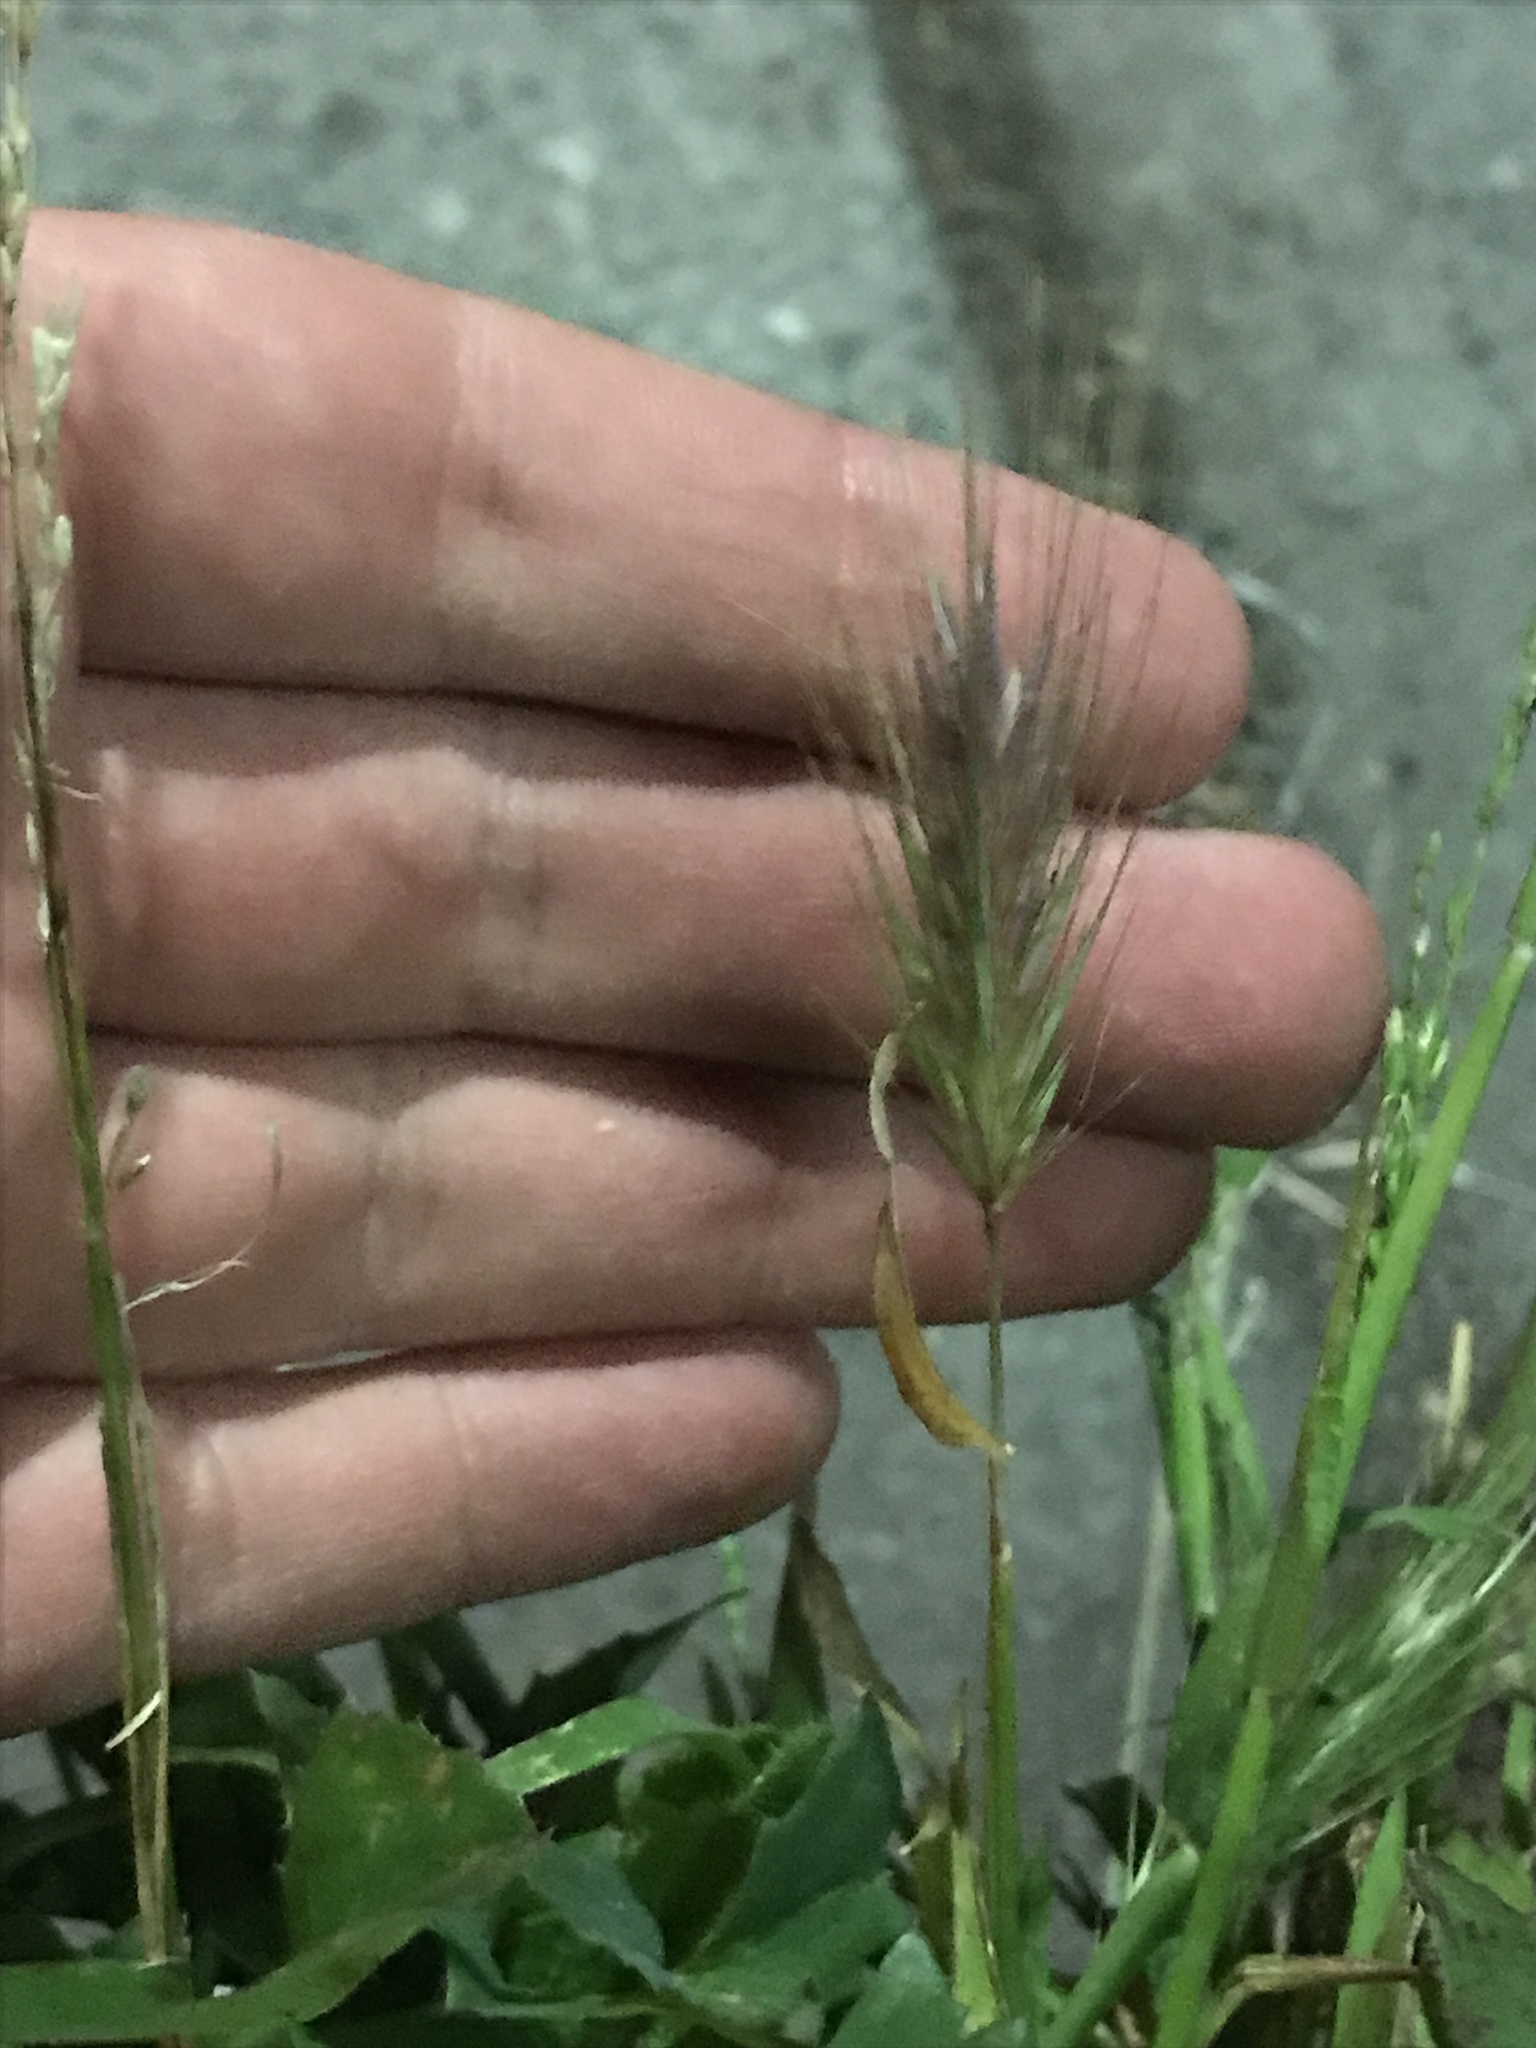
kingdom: Plantae
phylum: Tracheophyta
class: Liliopsida
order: Poales
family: Poaceae
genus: Hordeum
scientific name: Hordeum murinum
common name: Wall barley
